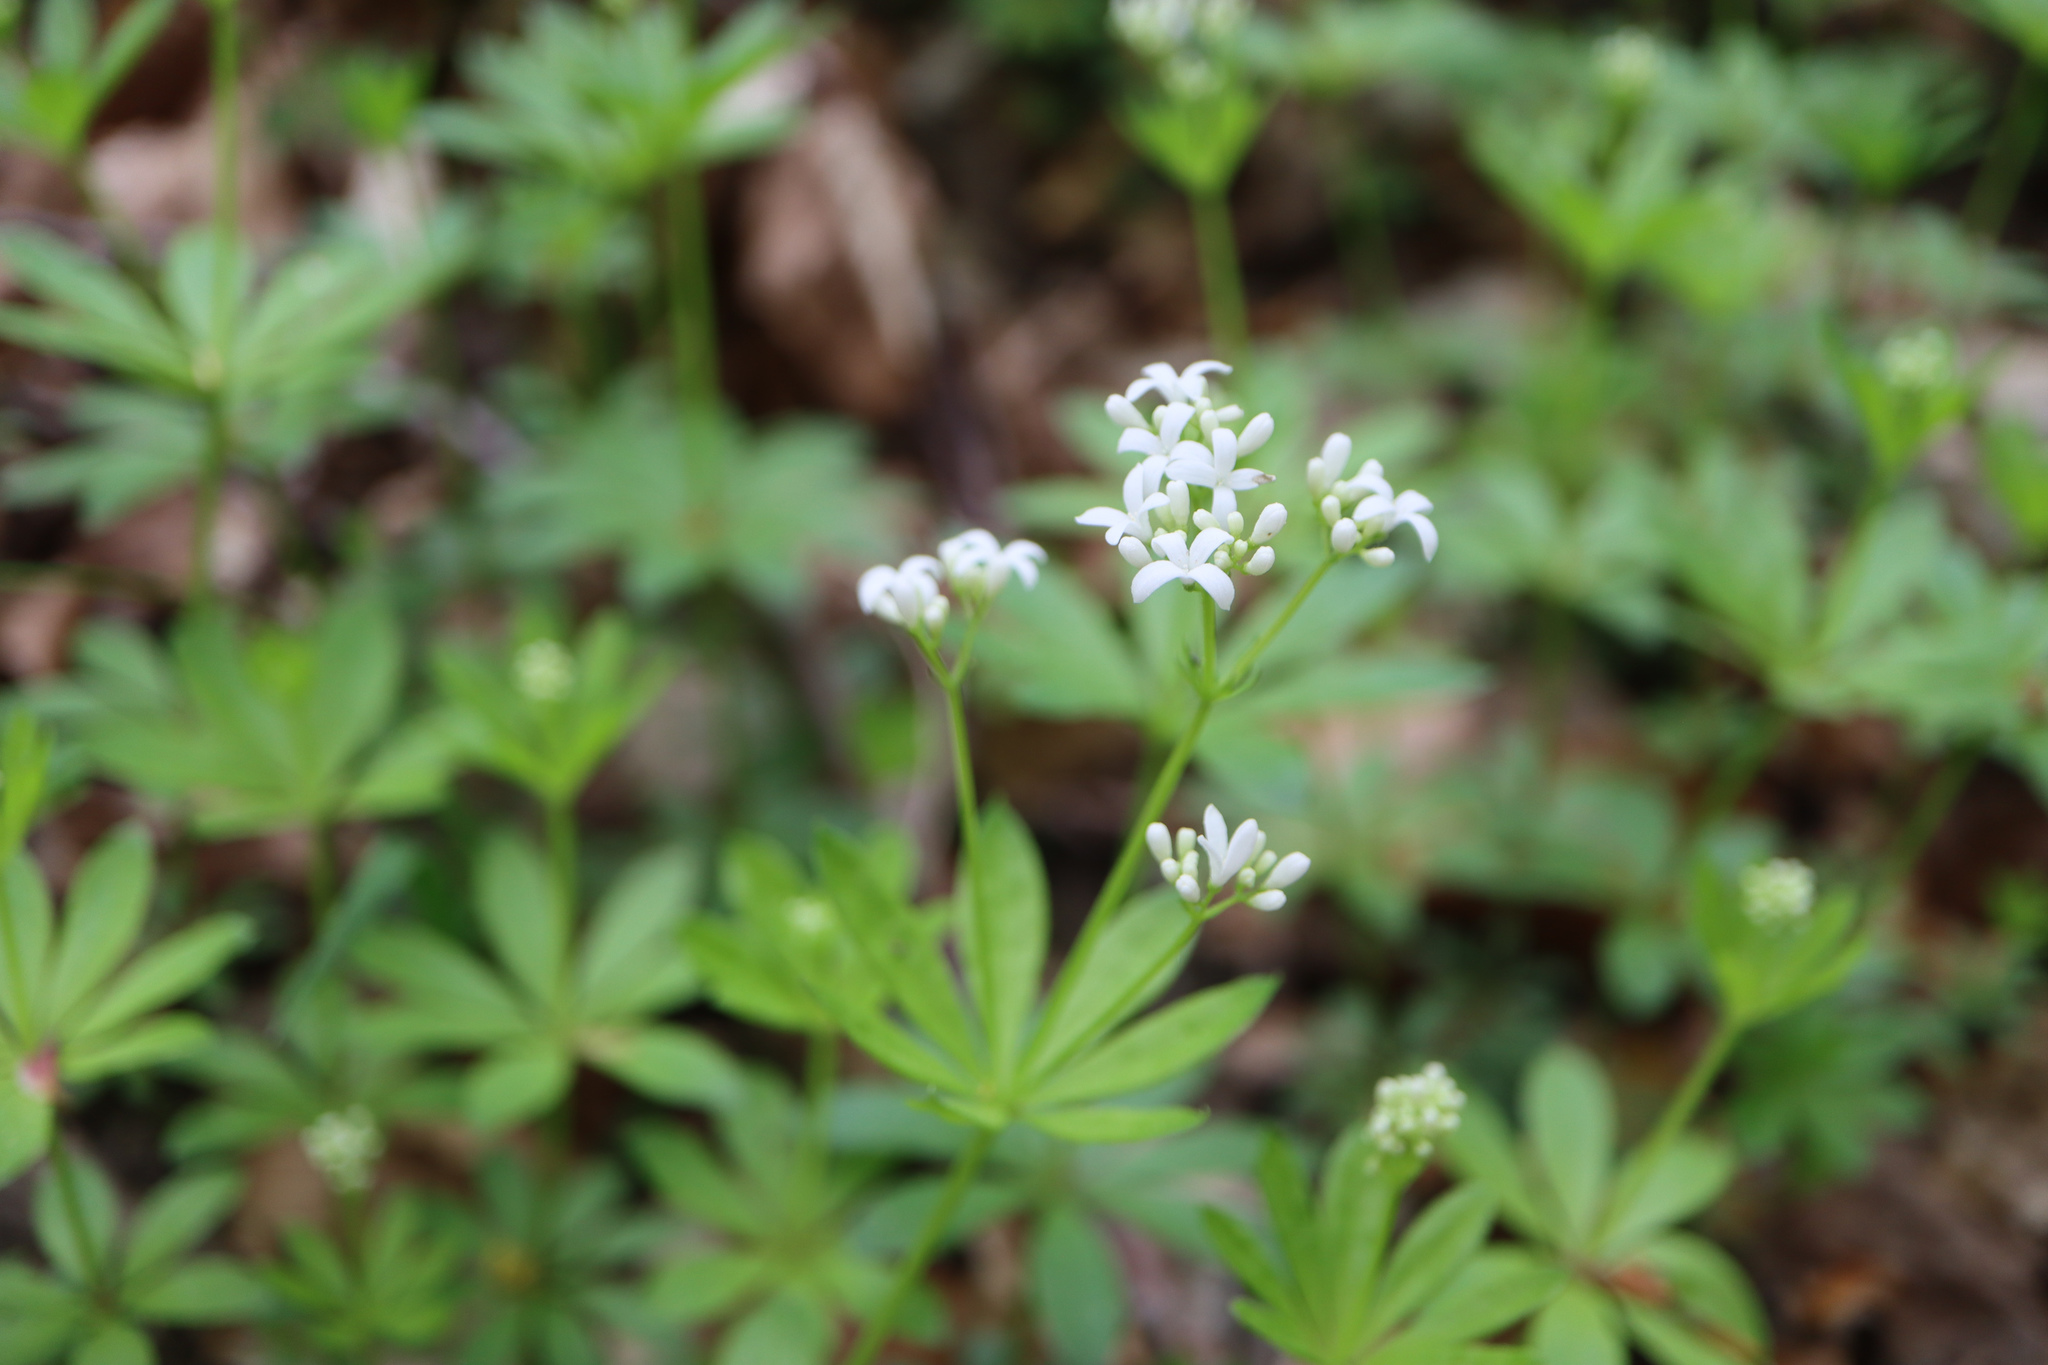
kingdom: Plantae
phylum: Tracheophyta
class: Magnoliopsida
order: Gentianales
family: Rubiaceae
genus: Galium
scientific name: Galium odoratum
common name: Sweet woodruff
